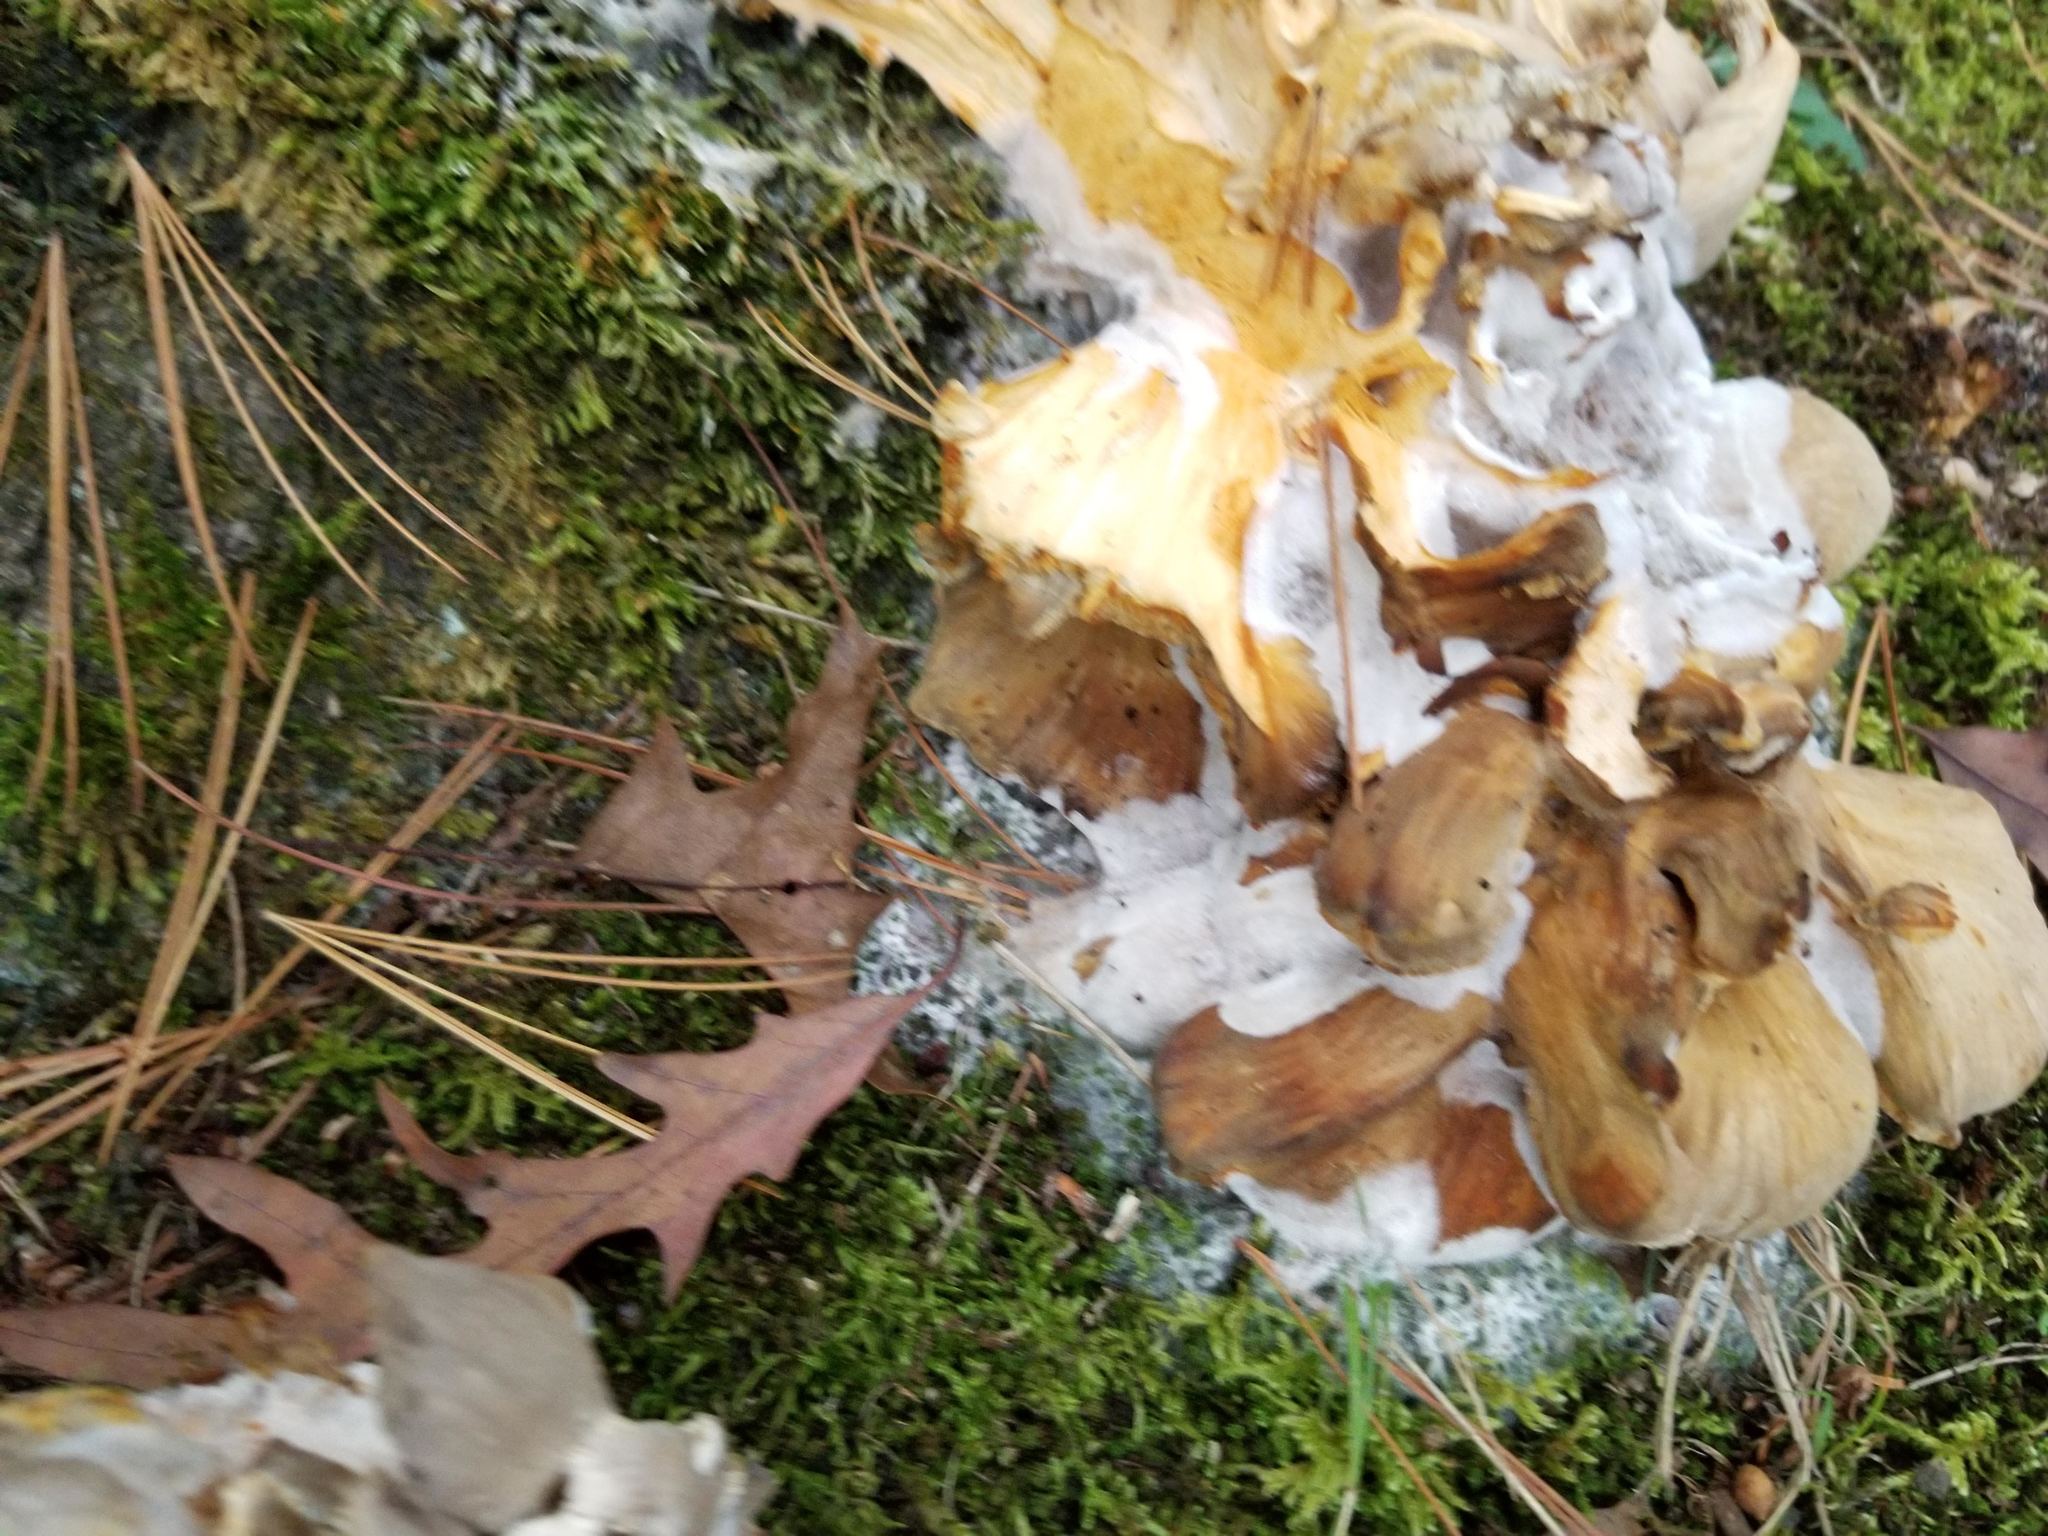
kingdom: Fungi
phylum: Basidiomycota
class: Agaricomycetes
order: Polyporales
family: Grifolaceae
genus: Grifola
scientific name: Grifola frondosa
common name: Hen of the woods
